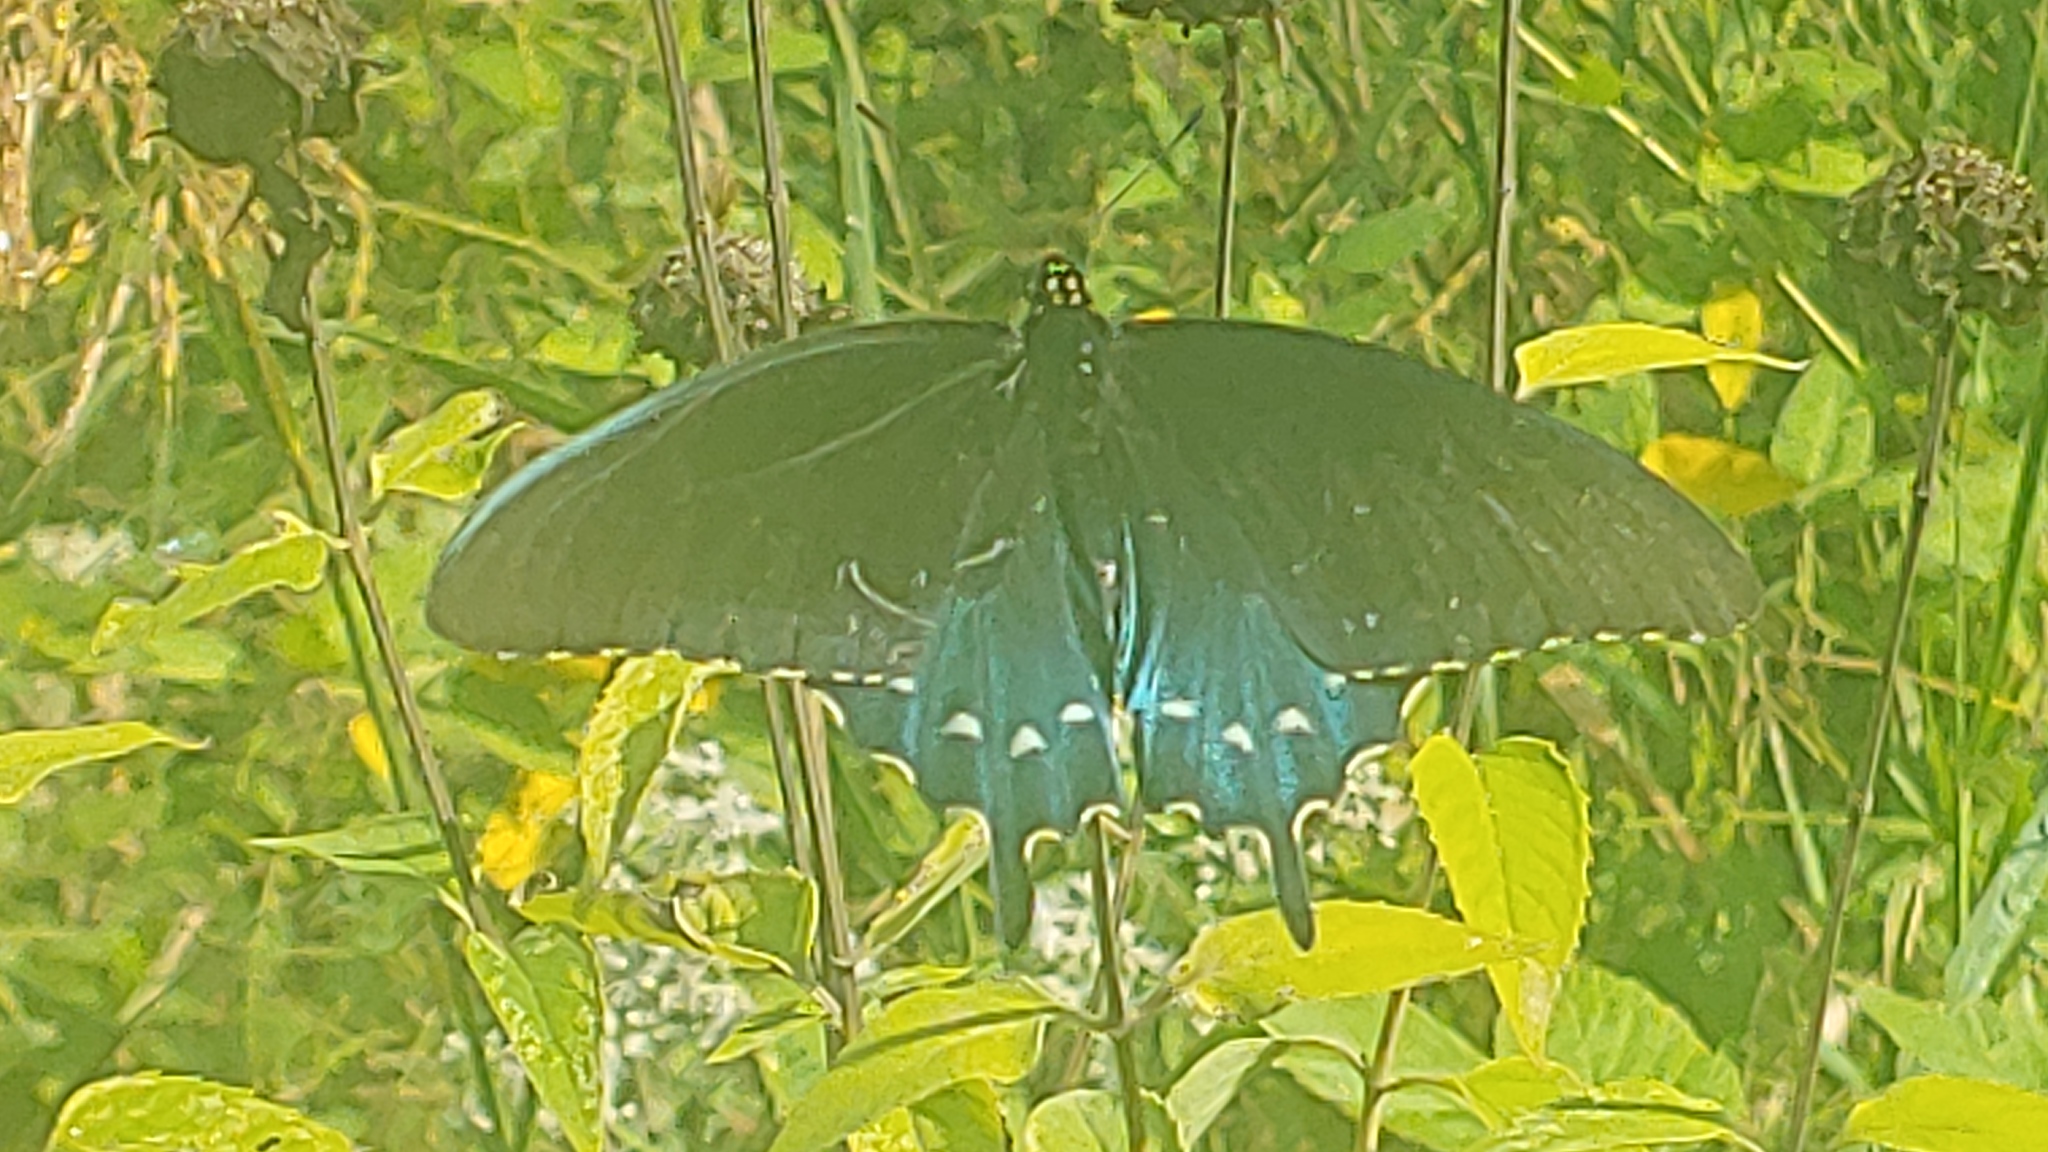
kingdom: Animalia
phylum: Arthropoda
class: Insecta
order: Lepidoptera
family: Papilionidae
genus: Battus
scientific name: Battus philenor
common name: Pipevine swallowtail
